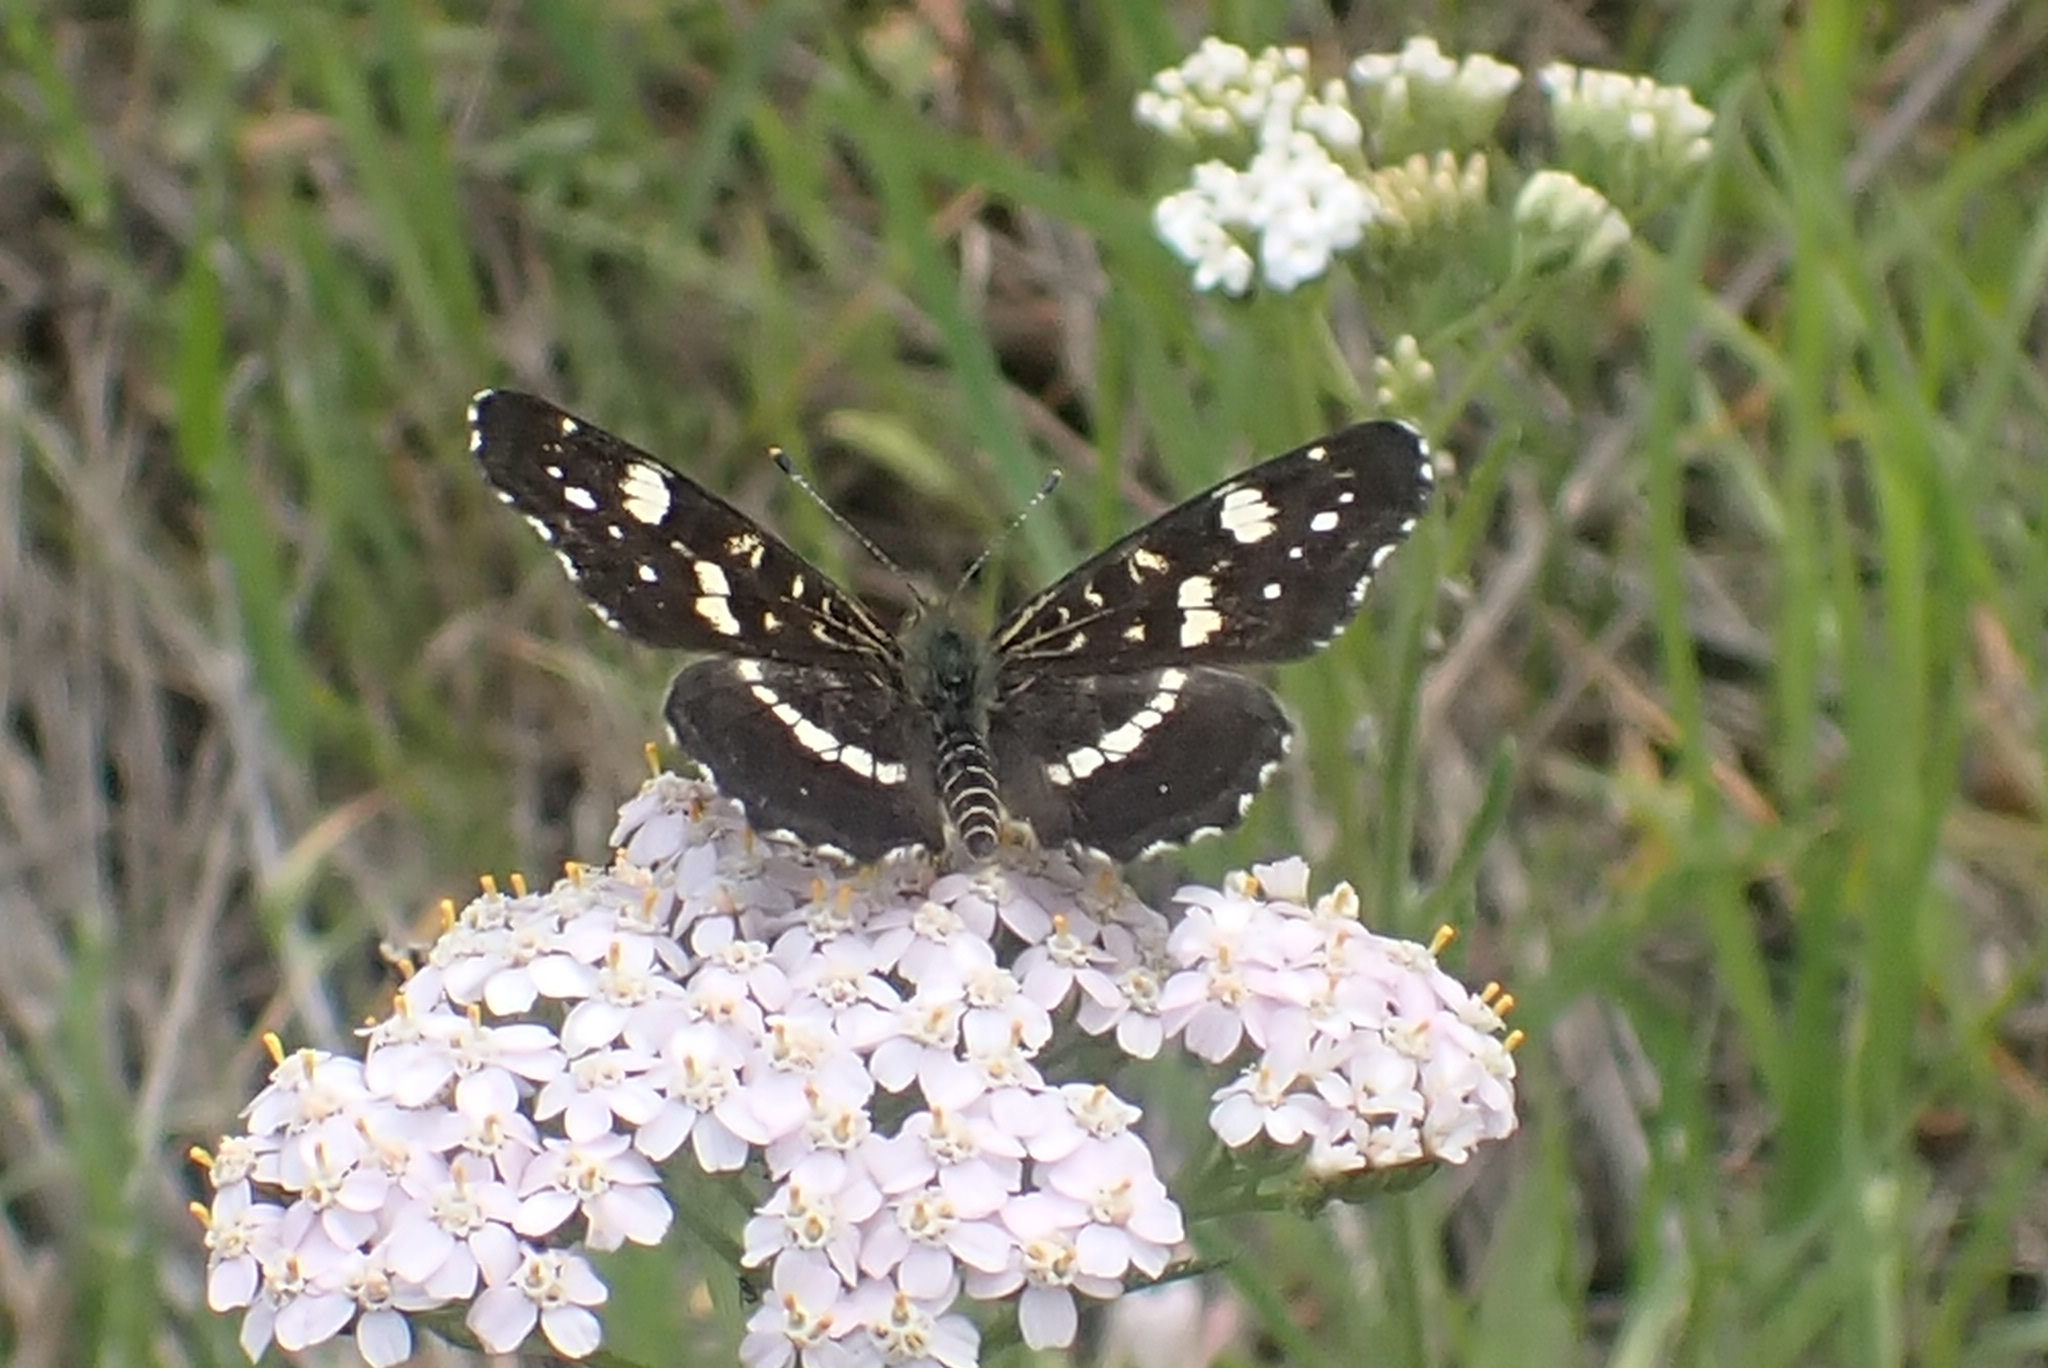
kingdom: Animalia
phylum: Arthropoda
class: Insecta
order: Lepidoptera
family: Nymphalidae
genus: Araschnia
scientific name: Araschnia levana
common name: Map butterfly
